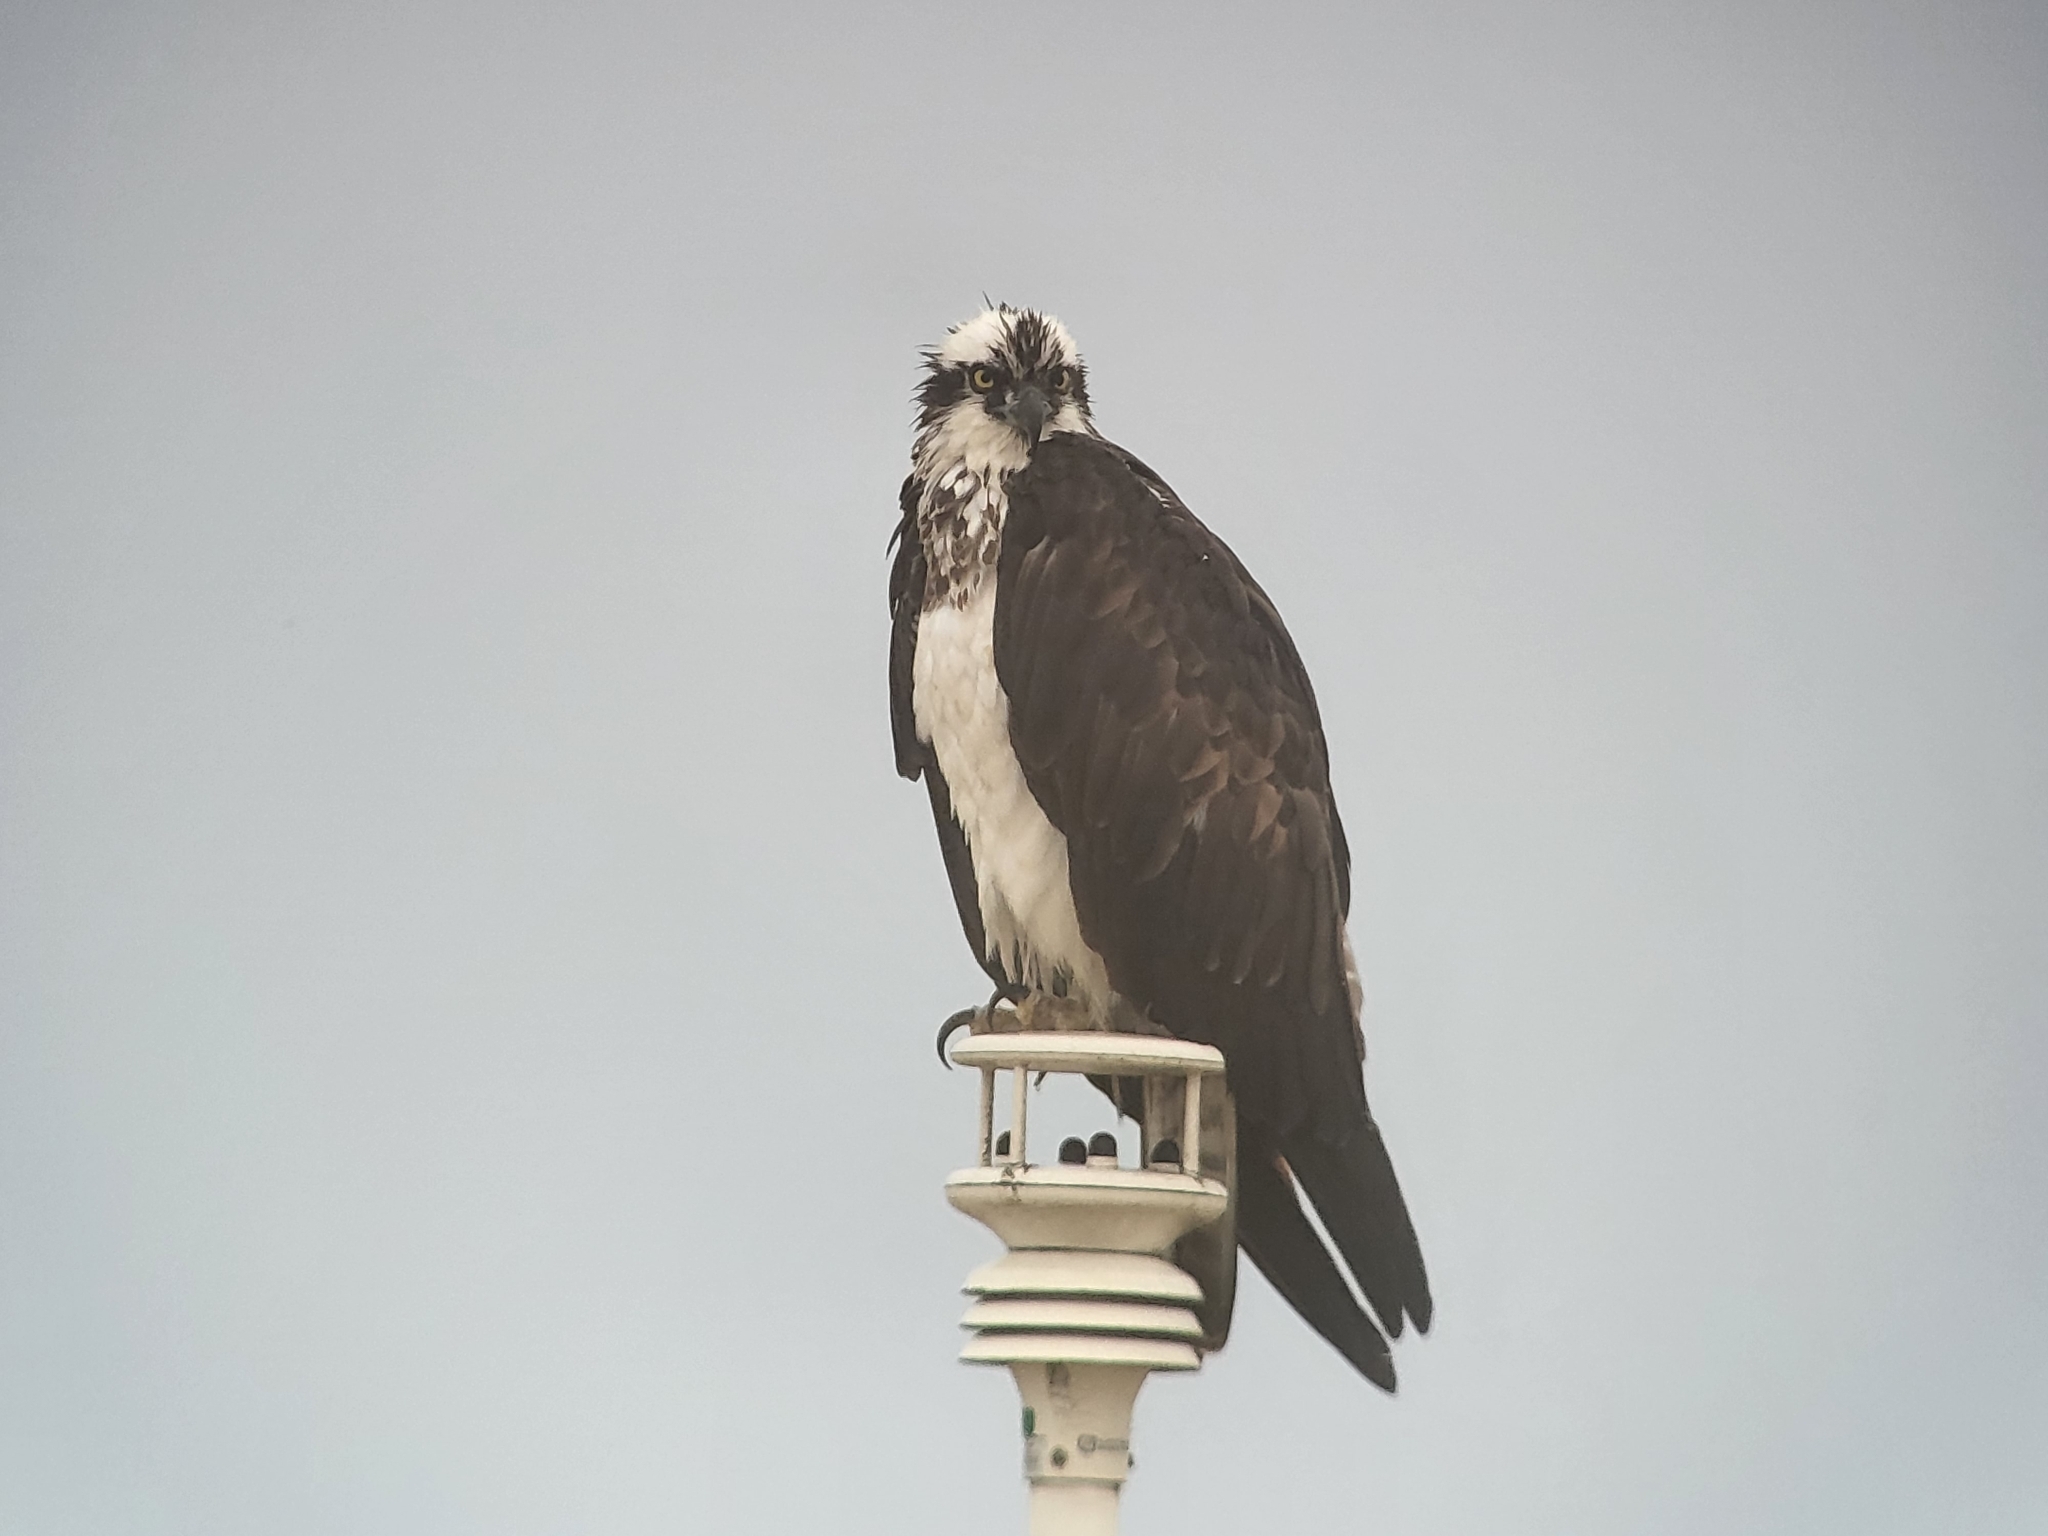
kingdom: Animalia
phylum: Chordata
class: Aves
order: Accipitriformes
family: Pandionidae
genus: Pandion
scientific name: Pandion haliaetus
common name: Osprey
